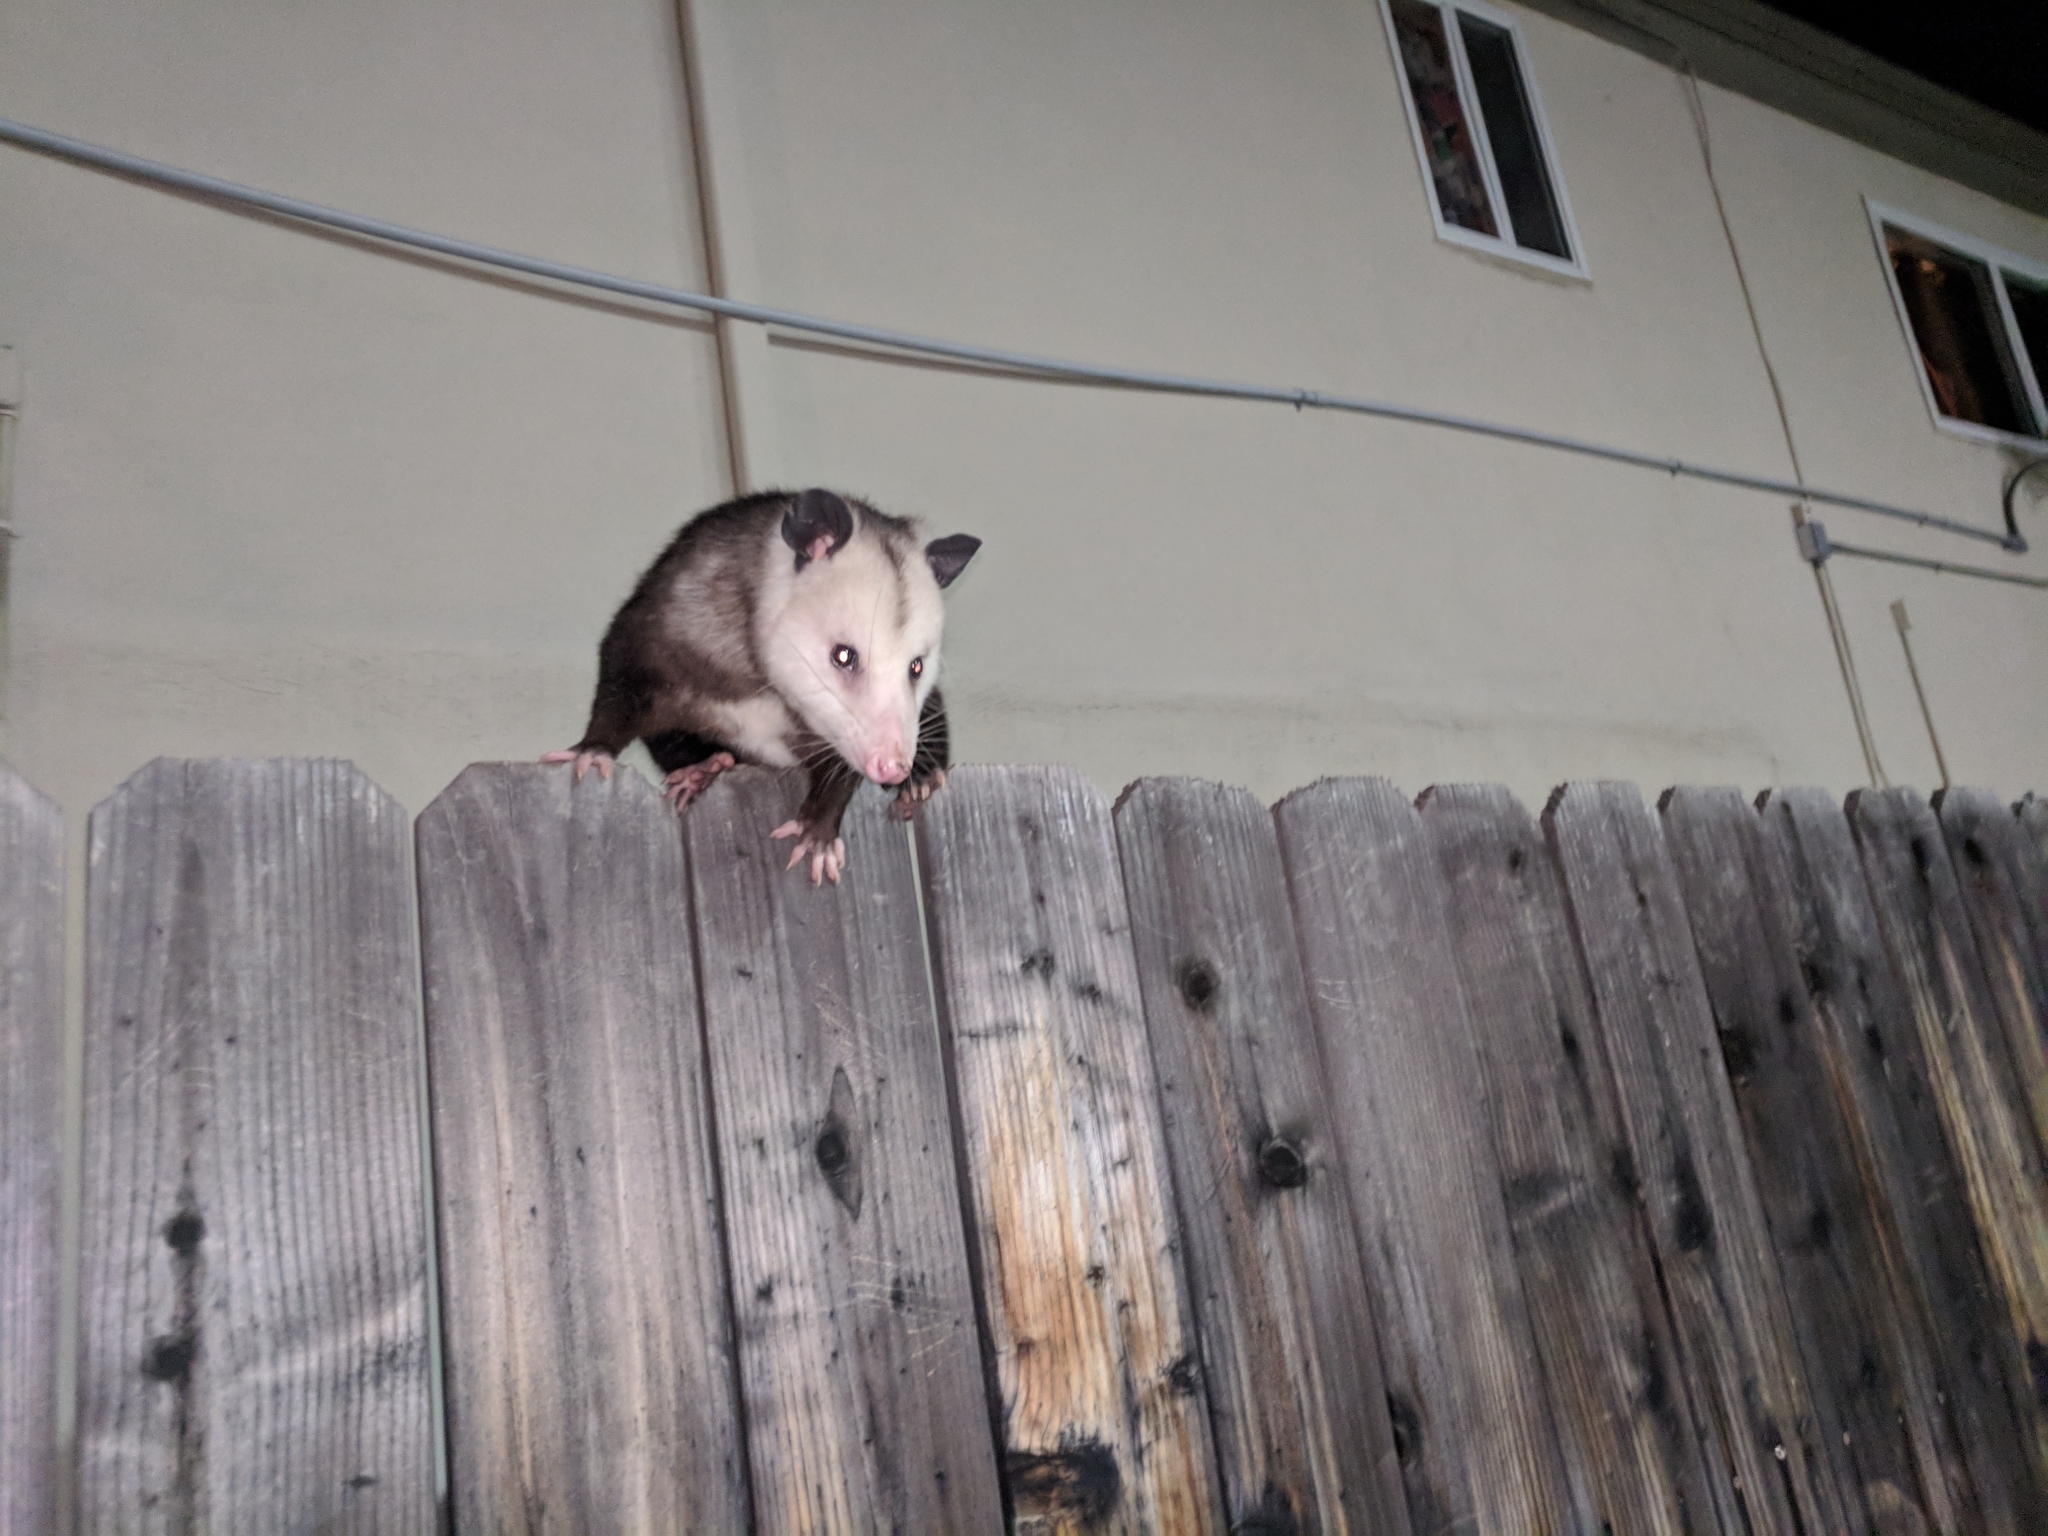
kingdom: Animalia
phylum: Chordata
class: Mammalia
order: Didelphimorphia
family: Didelphidae
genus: Didelphis
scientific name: Didelphis virginiana
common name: Virginia opossum
